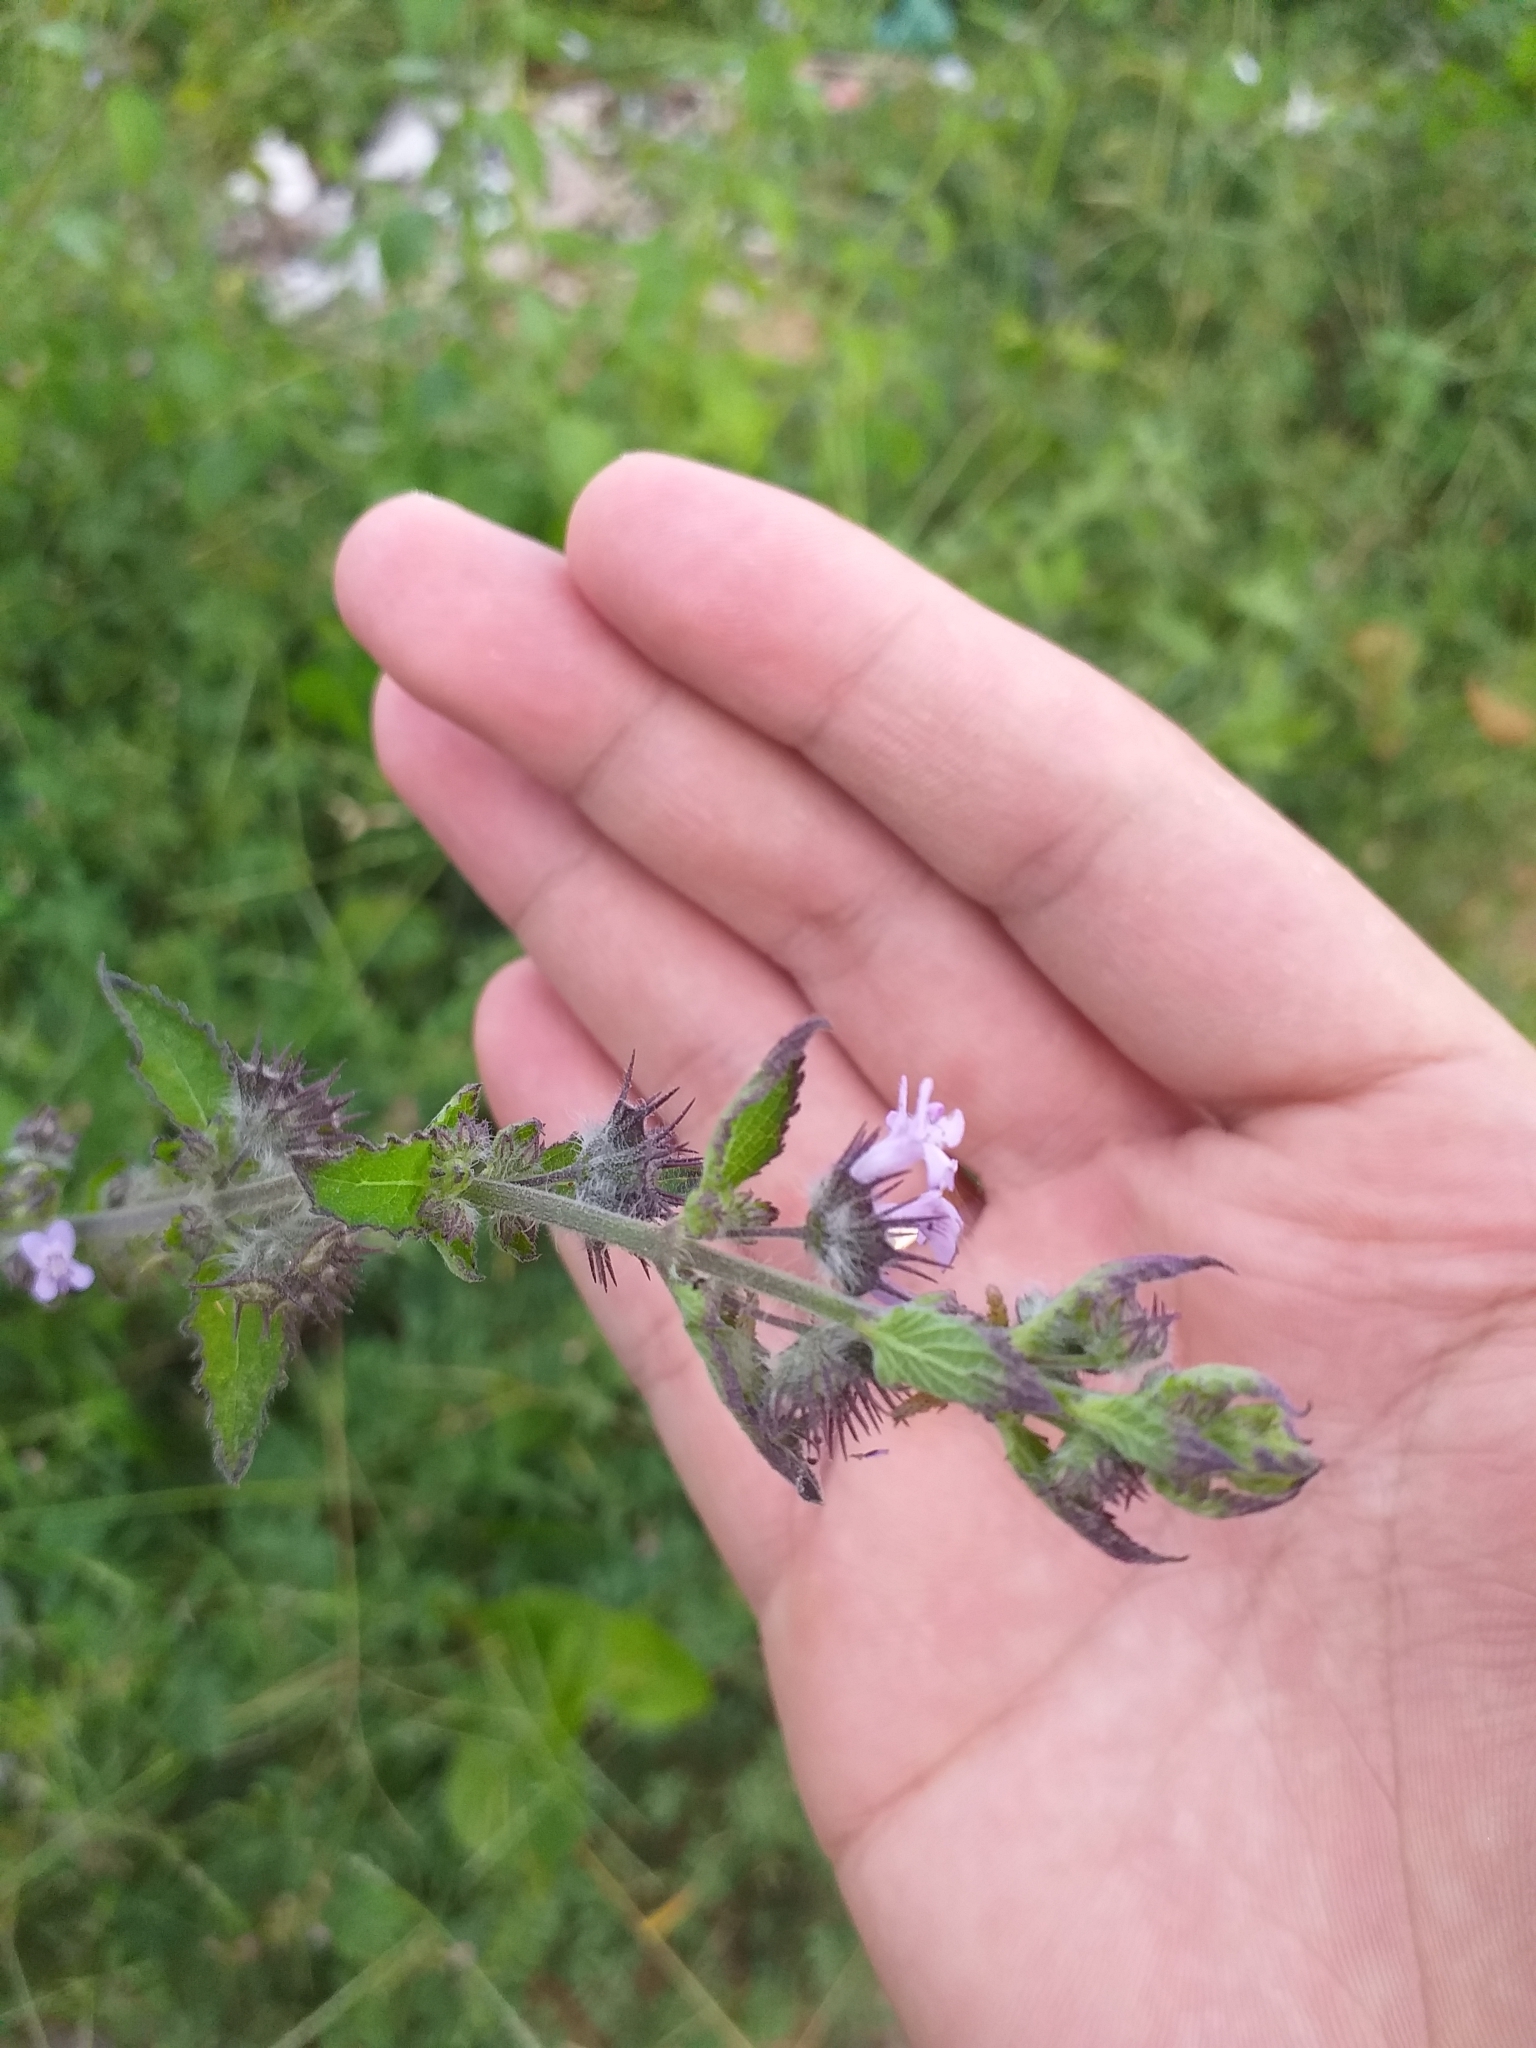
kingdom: Plantae
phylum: Tracheophyta
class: Magnoliopsida
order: Lamiales
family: Lamiaceae
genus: Mesosphaerum
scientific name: Mesosphaerum suaveolens
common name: Pignut
